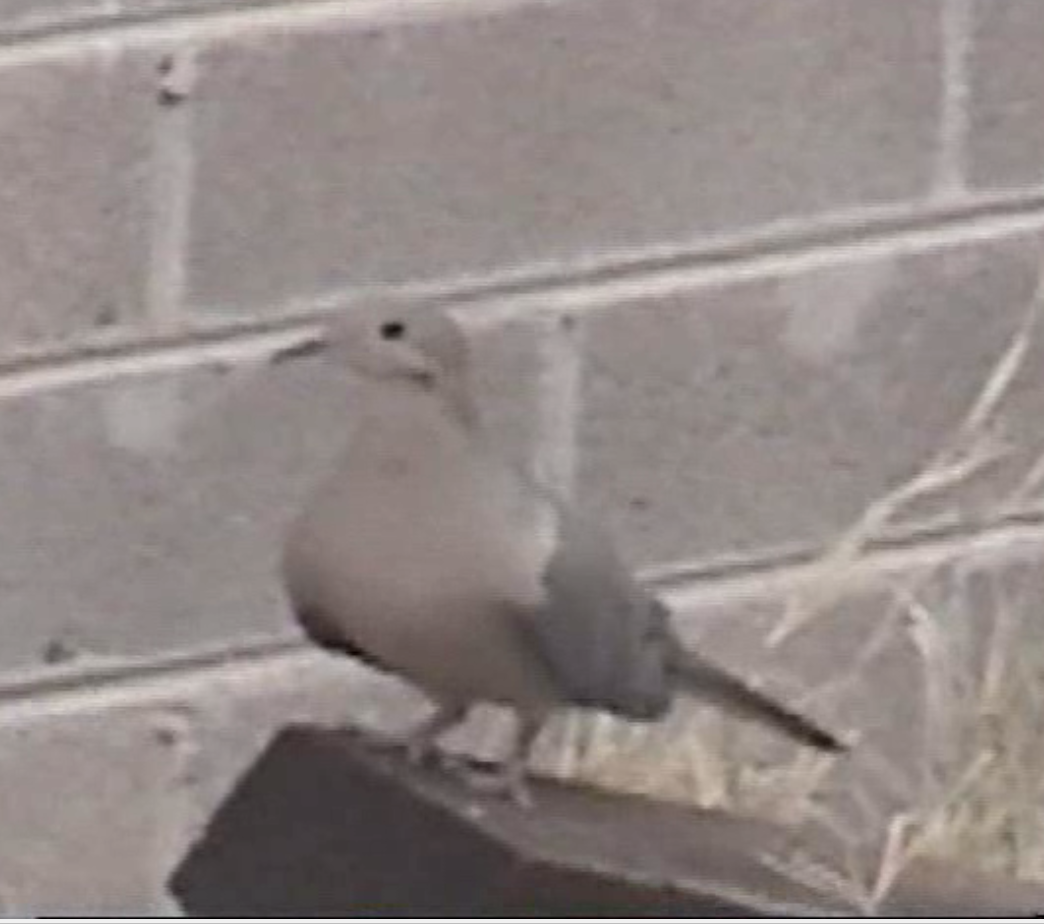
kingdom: Animalia
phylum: Chordata
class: Aves
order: Columbiformes
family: Columbidae
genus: Zenaida
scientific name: Zenaida macroura
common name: Mourning dove
